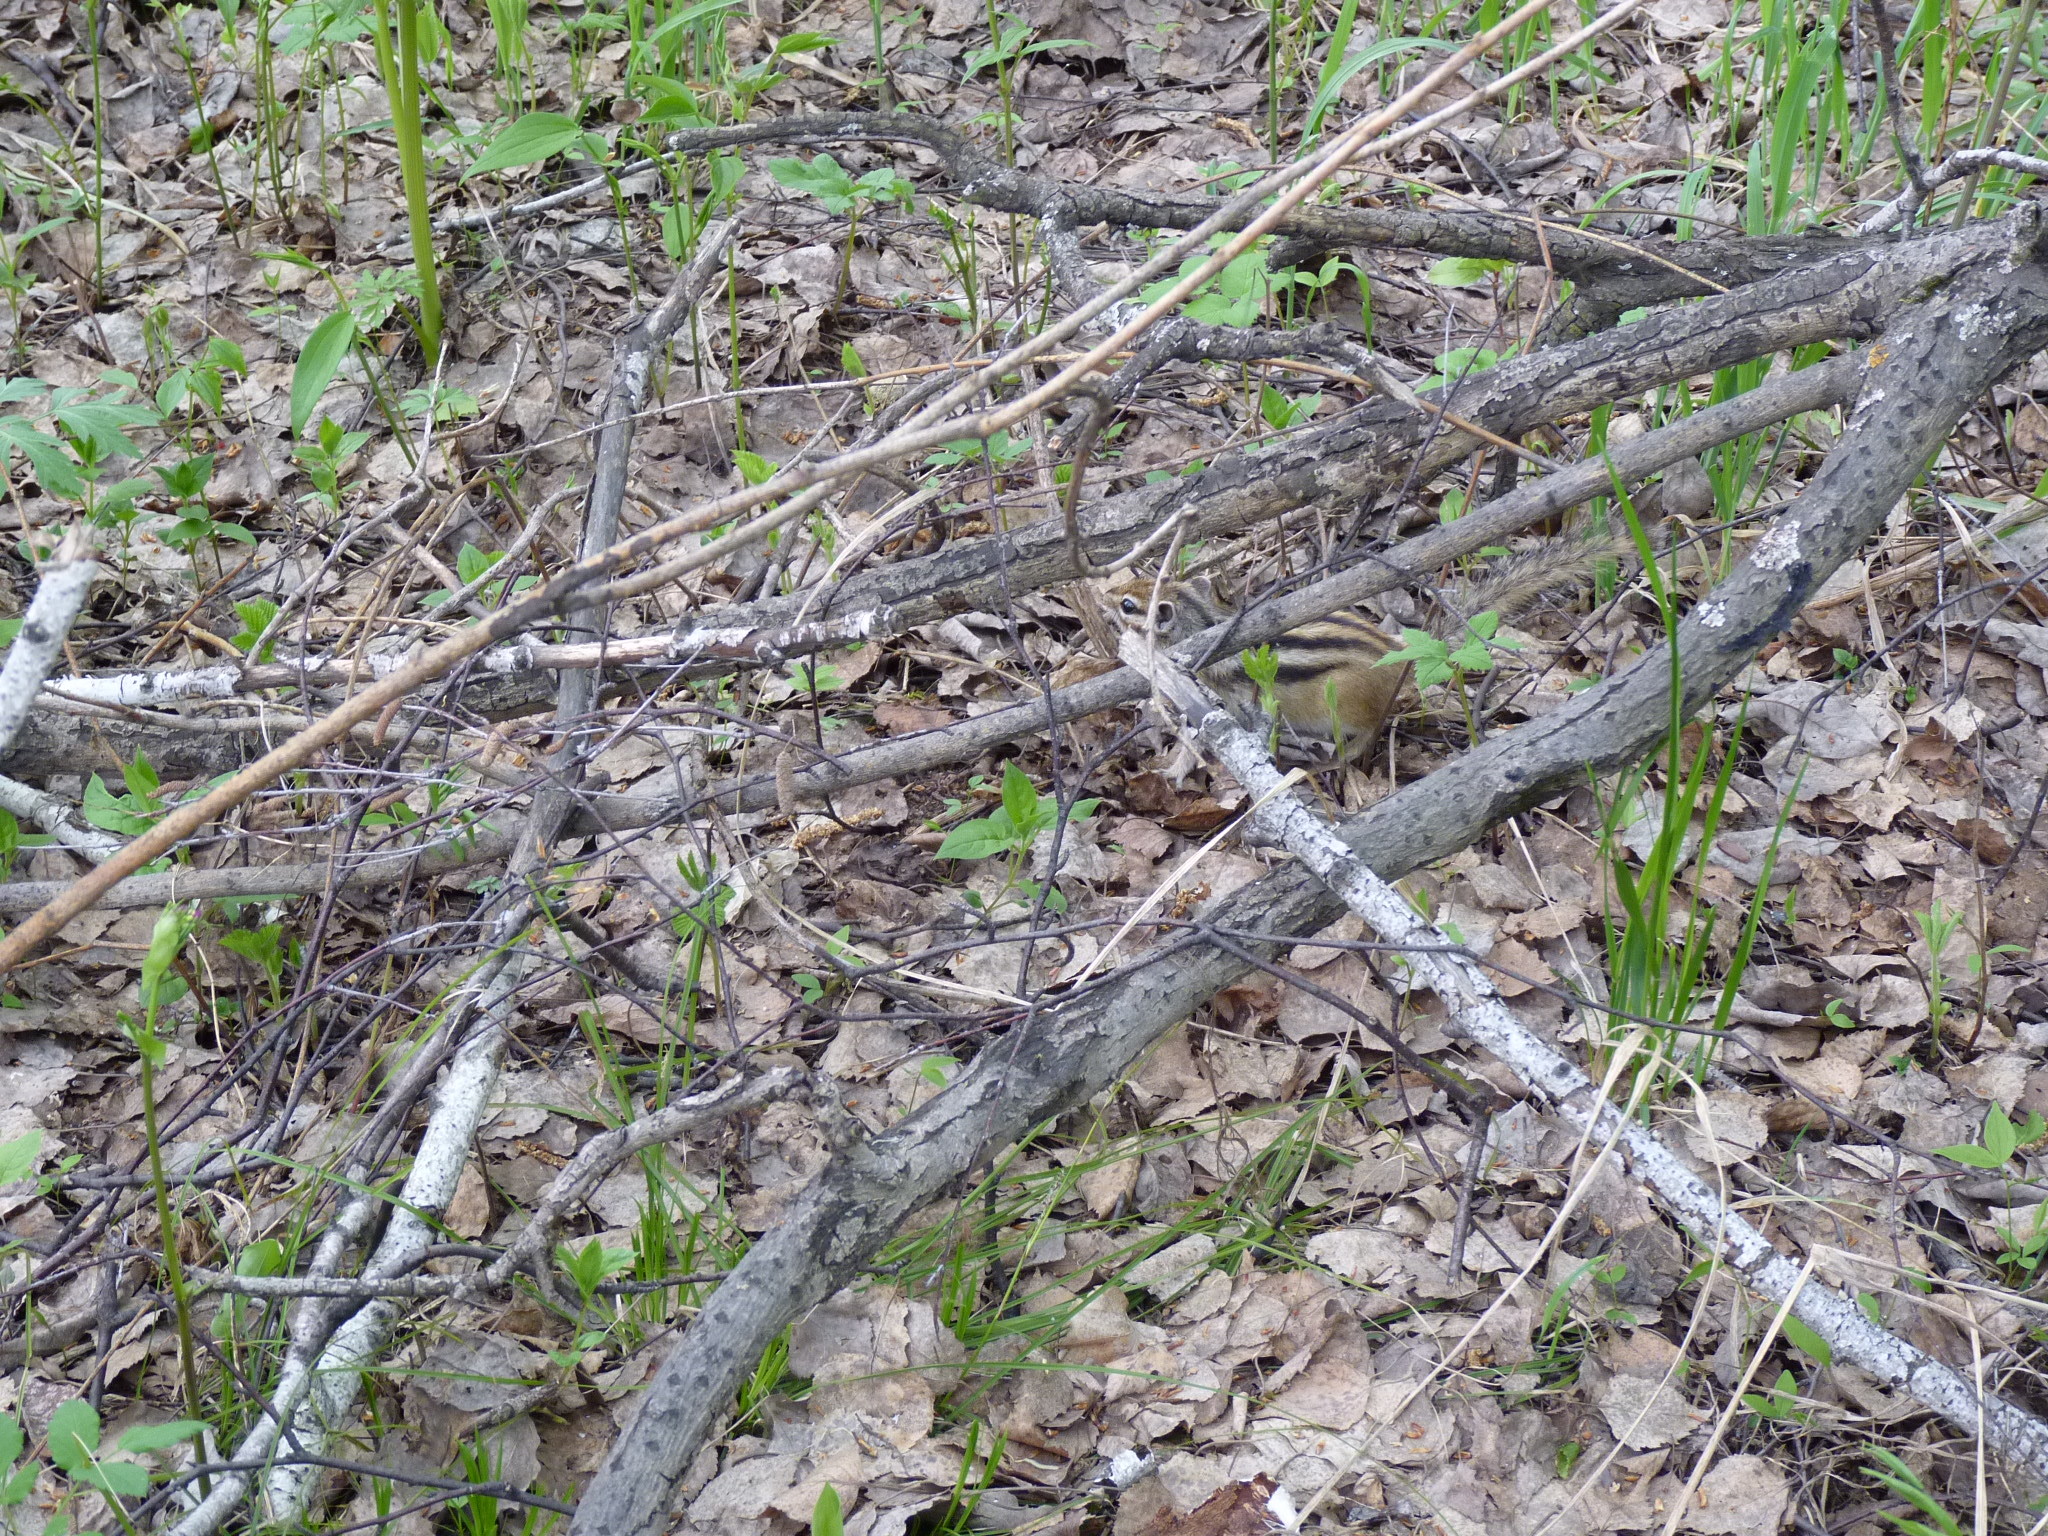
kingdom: Animalia
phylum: Chordata
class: Mammalia
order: Rodentia
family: Sciuridae
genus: Tamias
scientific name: Tamias sibiricus
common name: Siberian chipmunk
